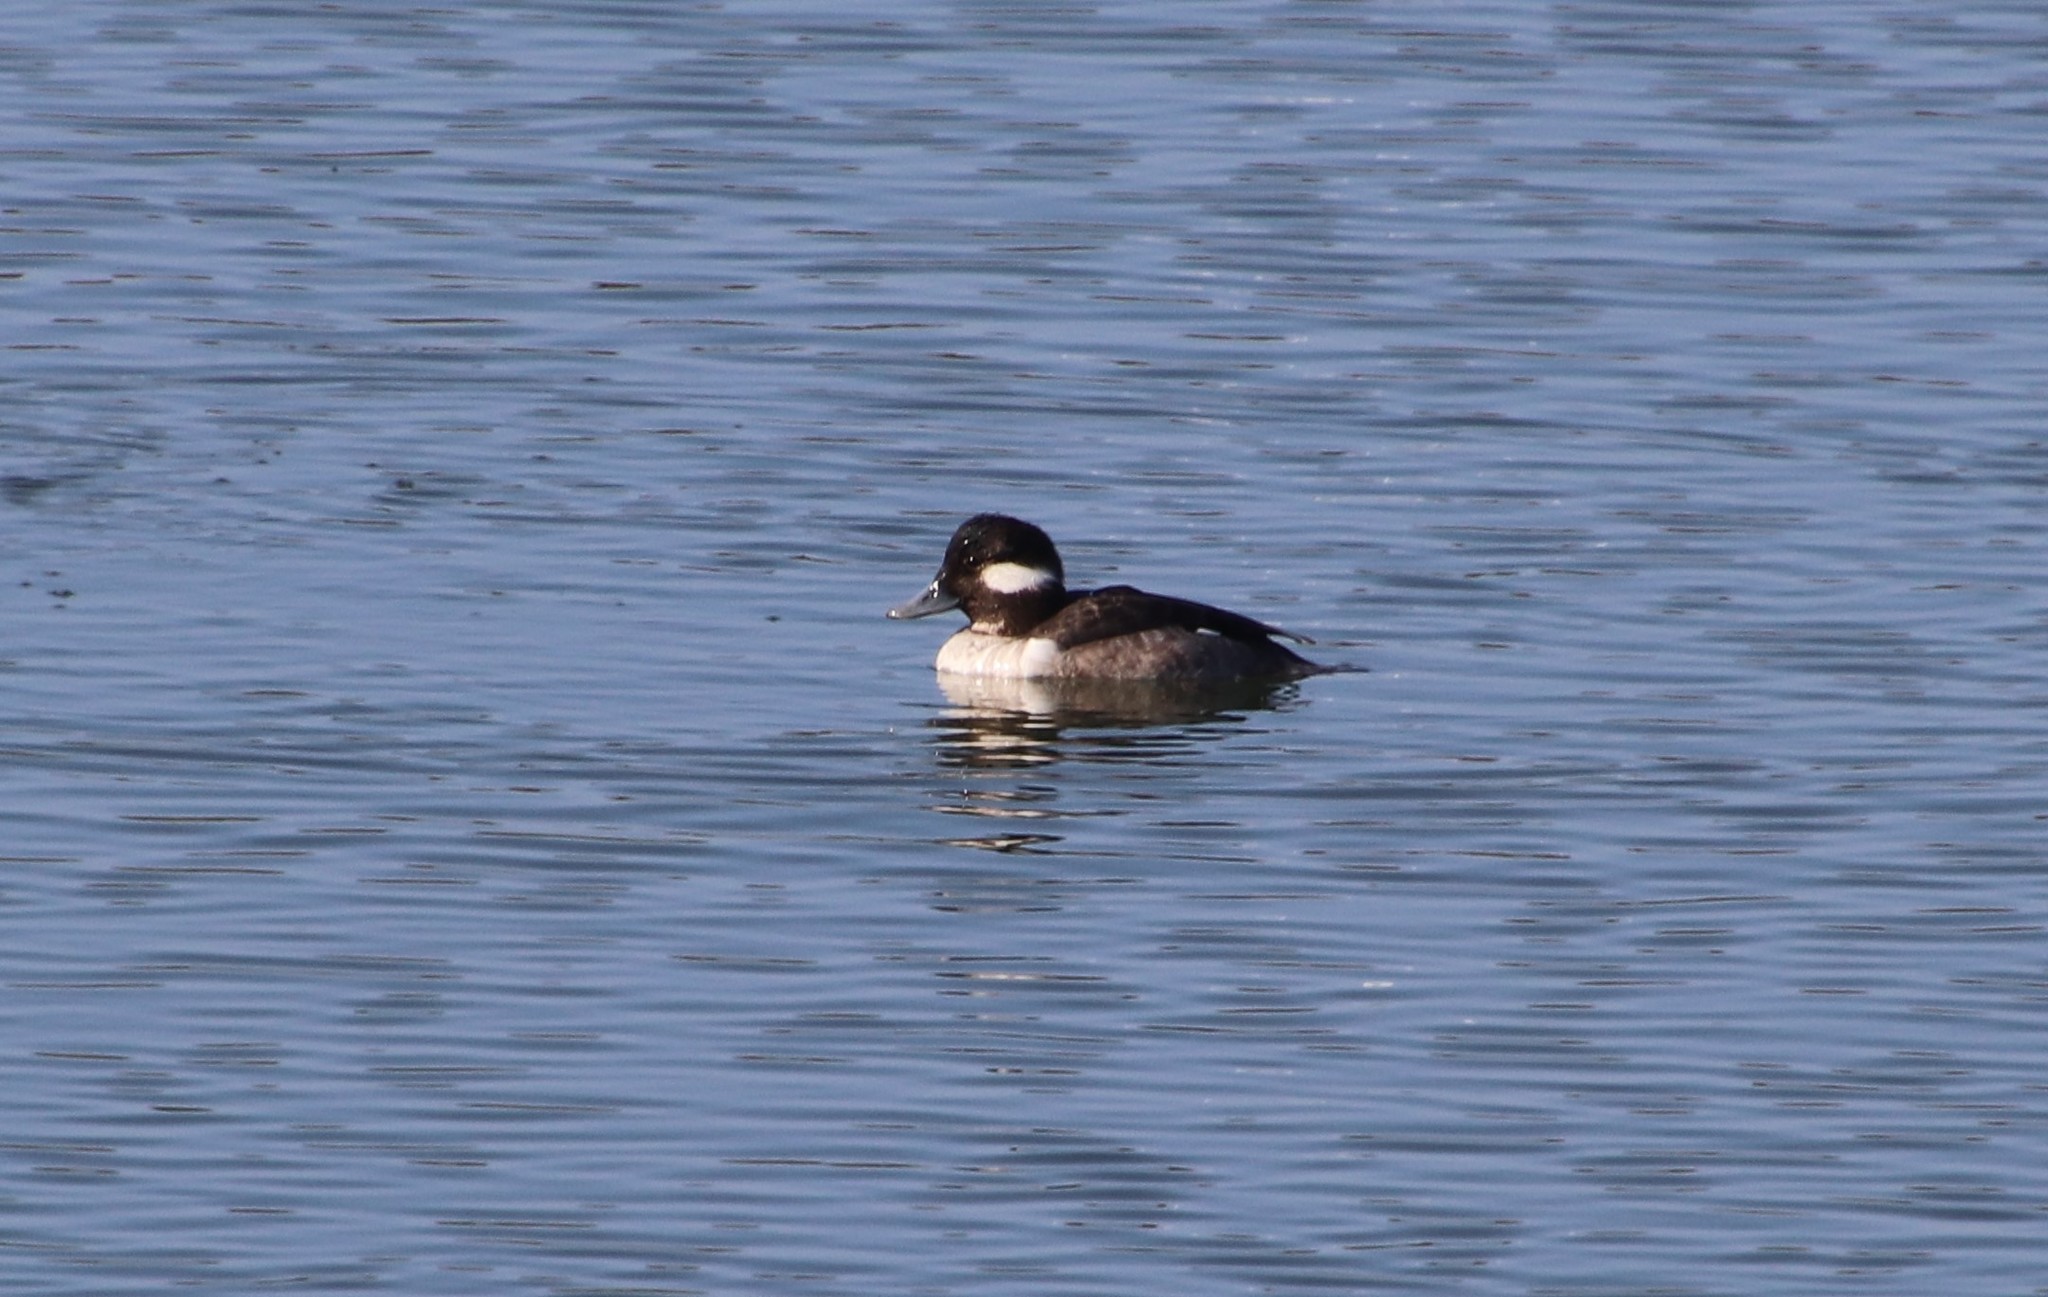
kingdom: Animalia
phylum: Chordata
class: Aves
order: Anseriformes
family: Anatidae
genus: Bucephala
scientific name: Bucephala albeola
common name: Bufflehead
